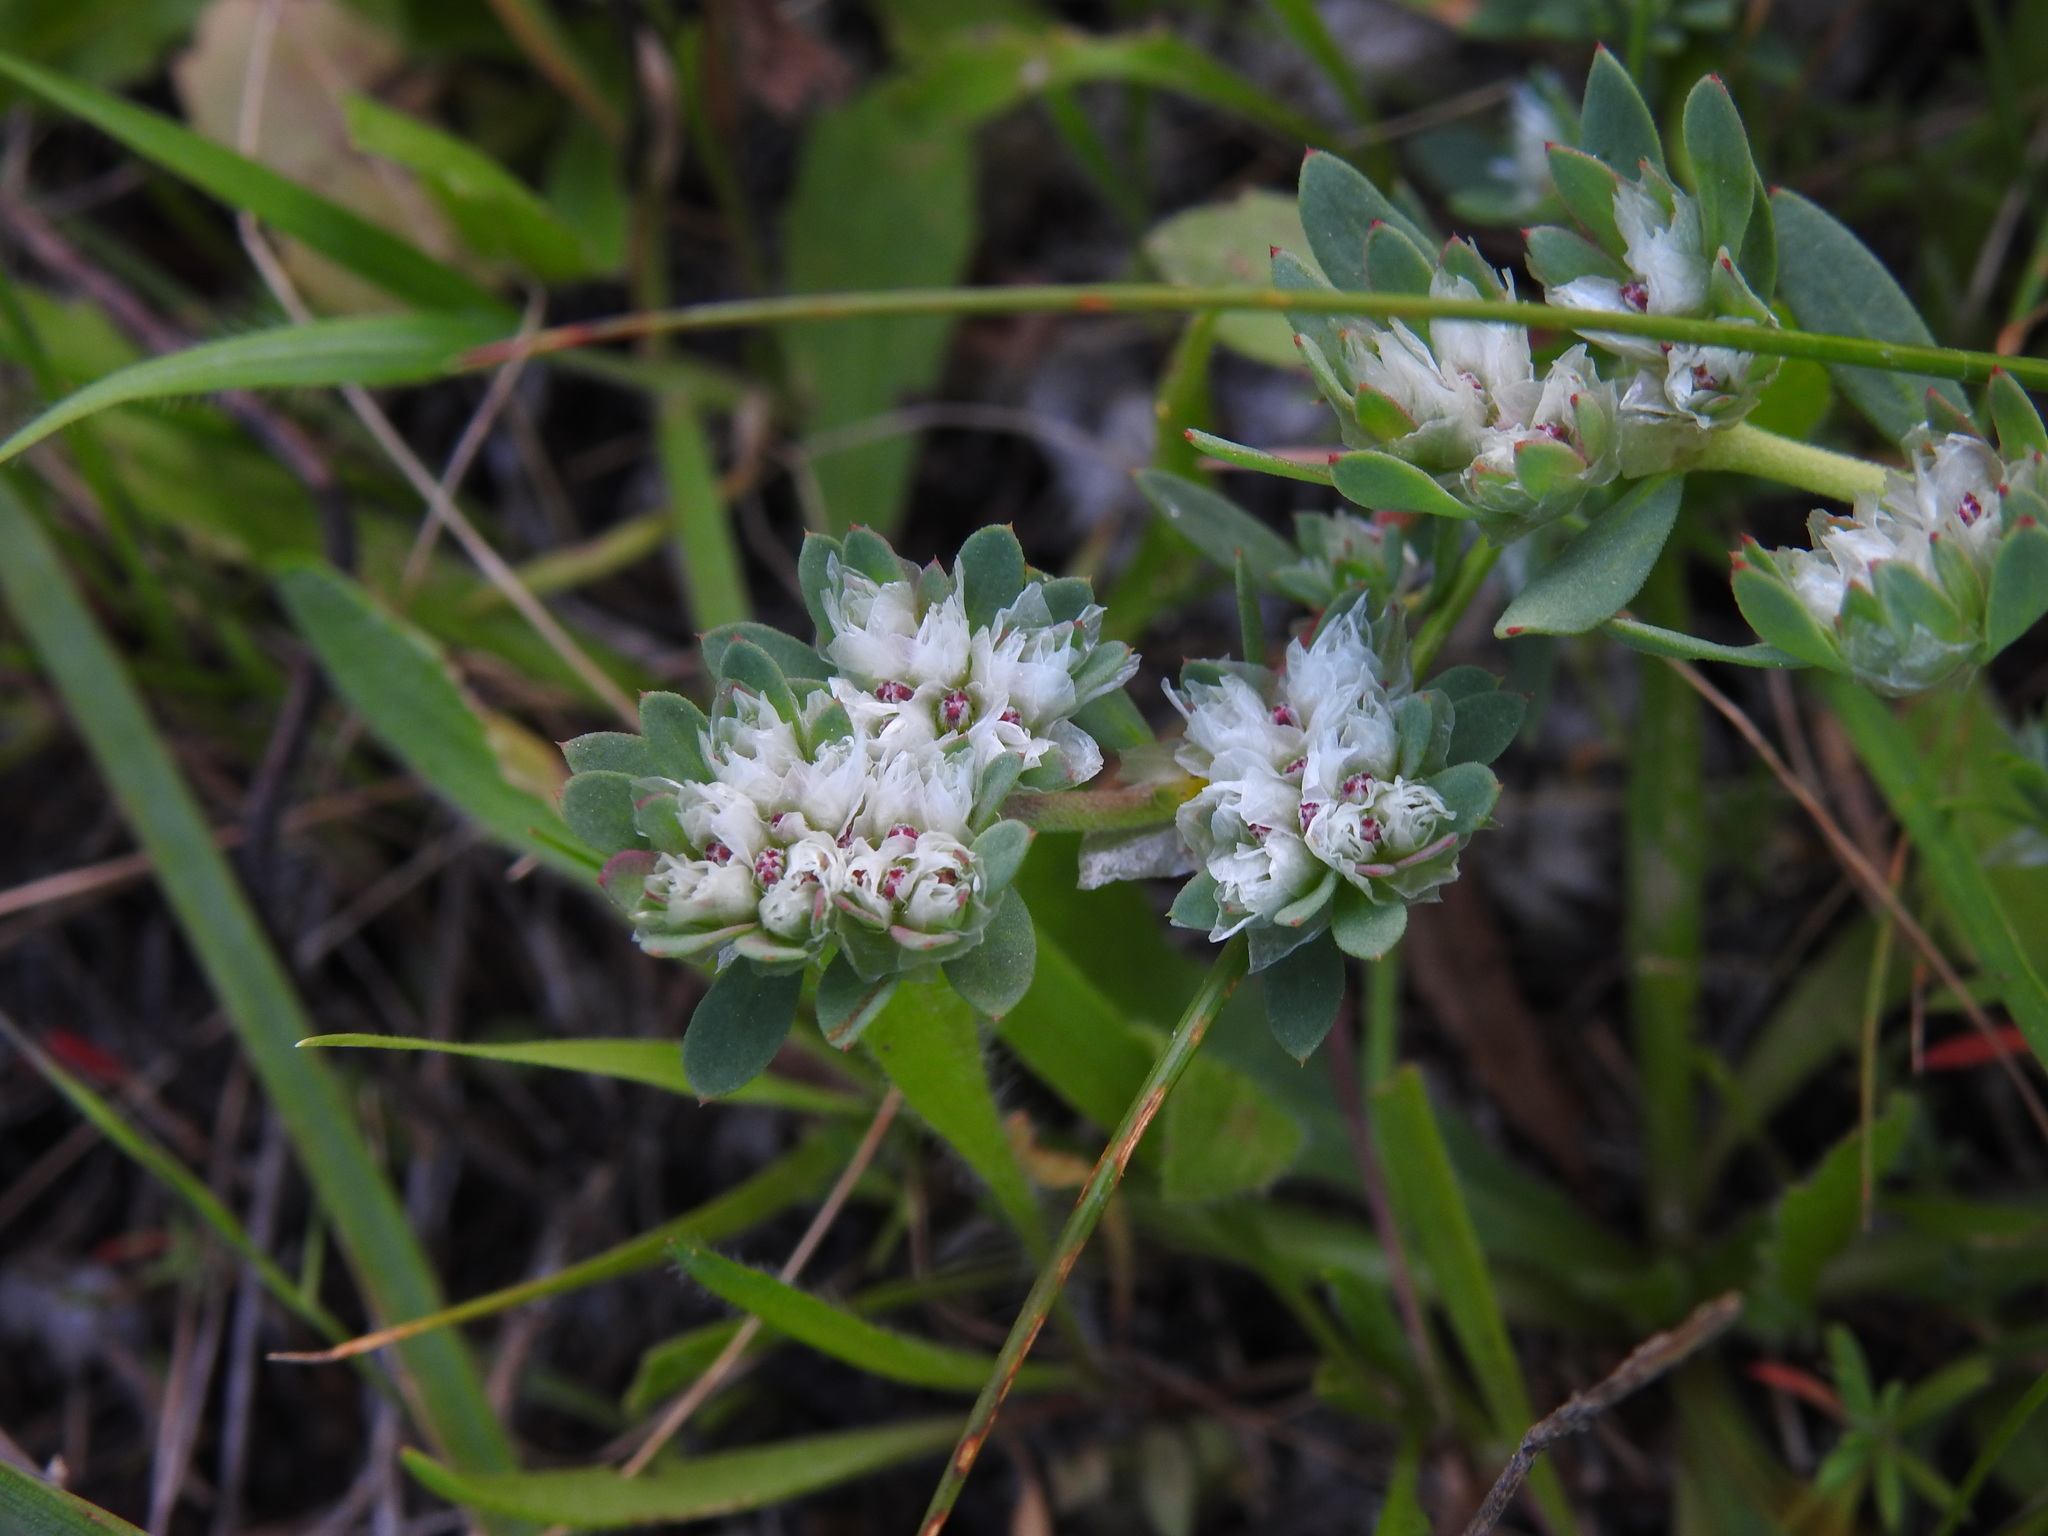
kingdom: Plantae
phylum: Tracheophyta
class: Magnoliopsida
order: Caryophyllales
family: Caryophyllaceae
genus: Paronychia
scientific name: Paronychia argentea
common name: Silver nailroot
